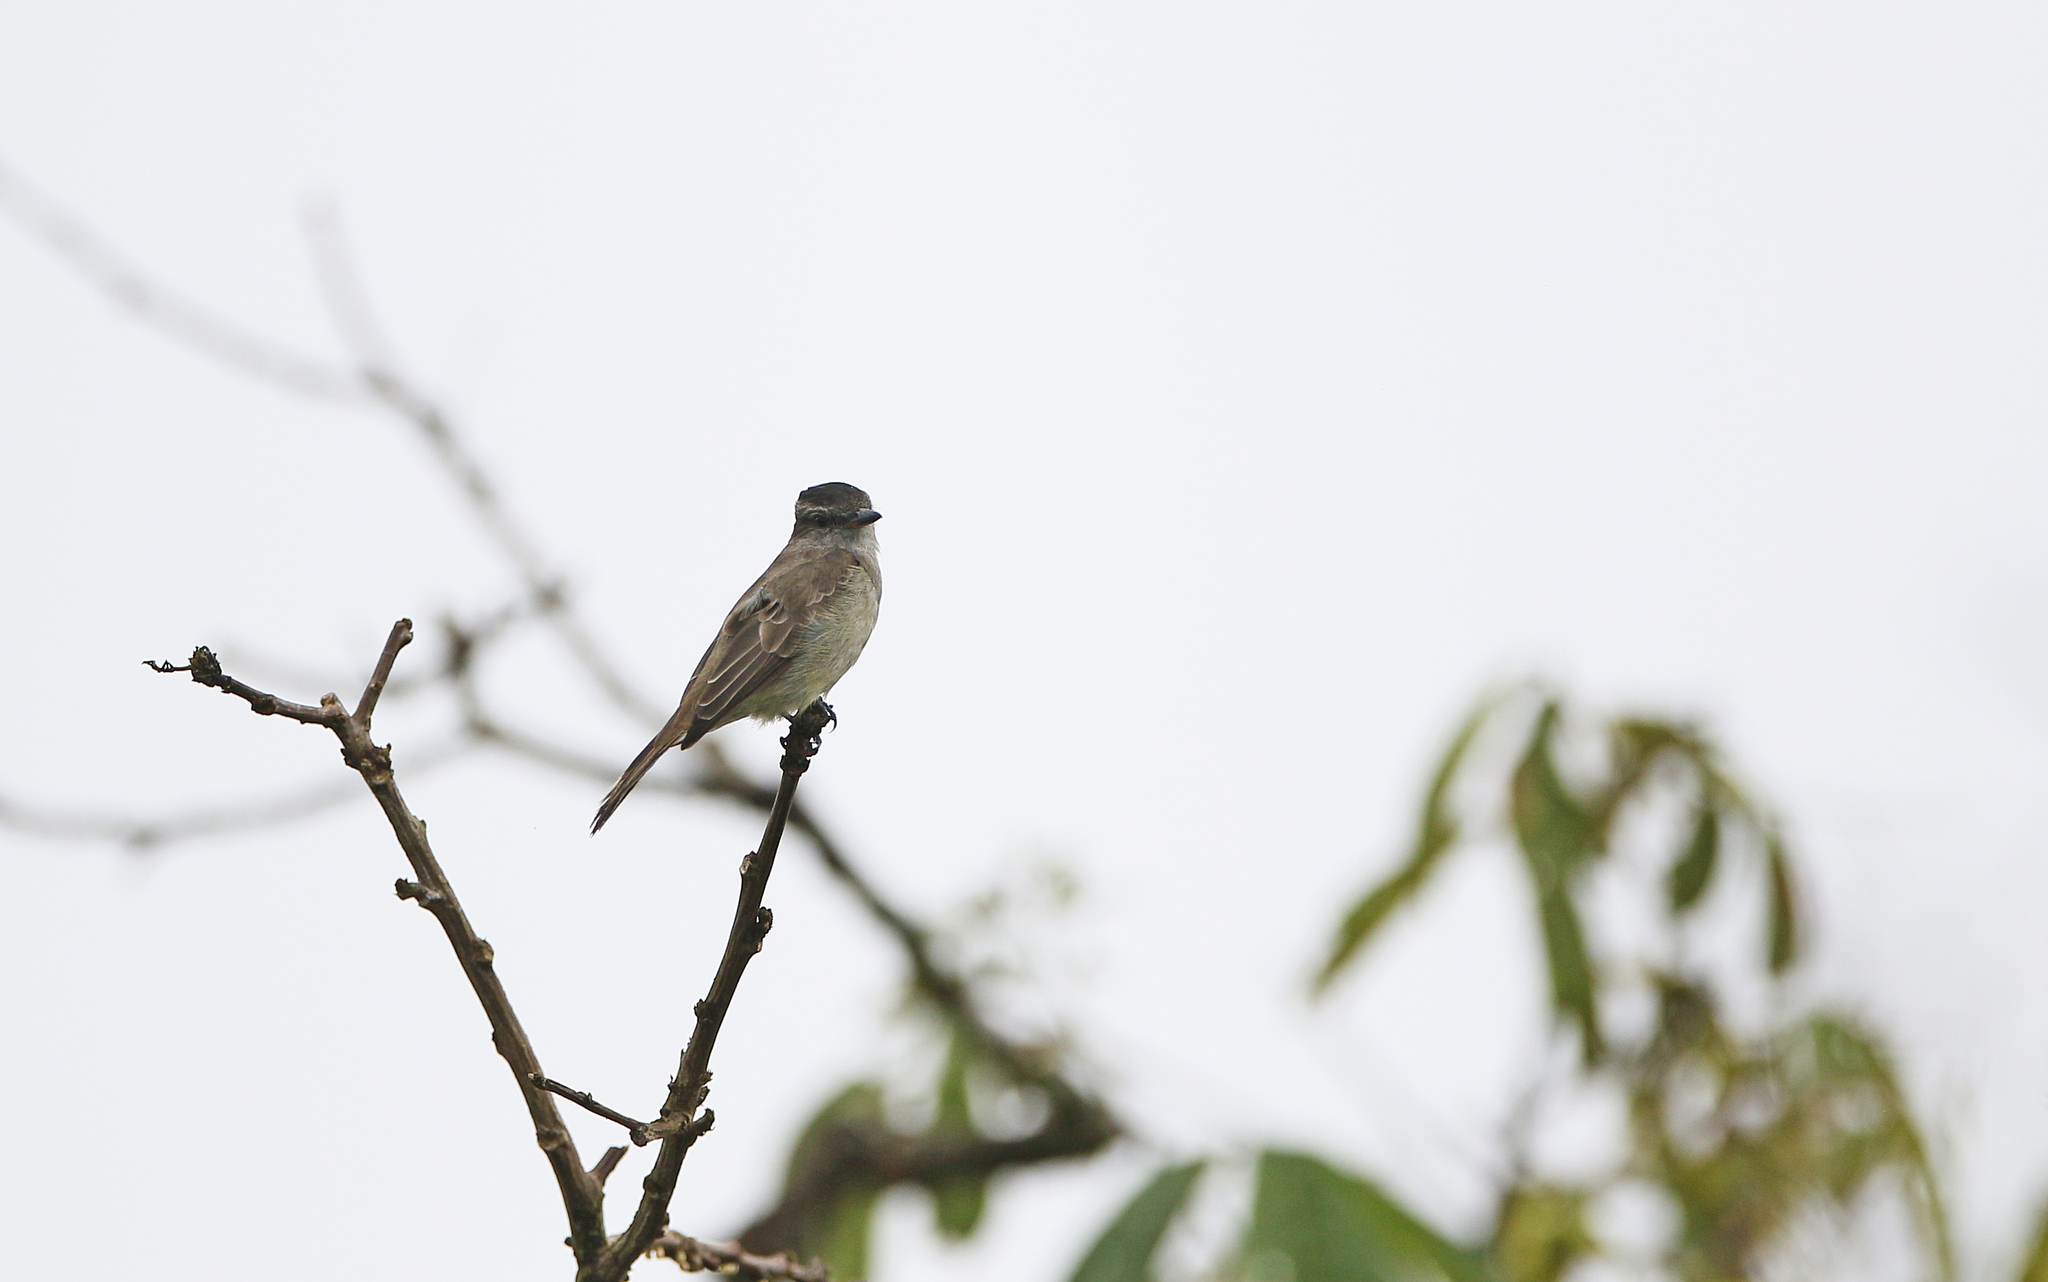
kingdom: Animalia
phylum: Chordata
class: Aves
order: Passeriformes
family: Tyrannidae
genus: Empidonomus
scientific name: Empidonomus aurantioatrocristatus
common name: Crowned slaty flycatcher
